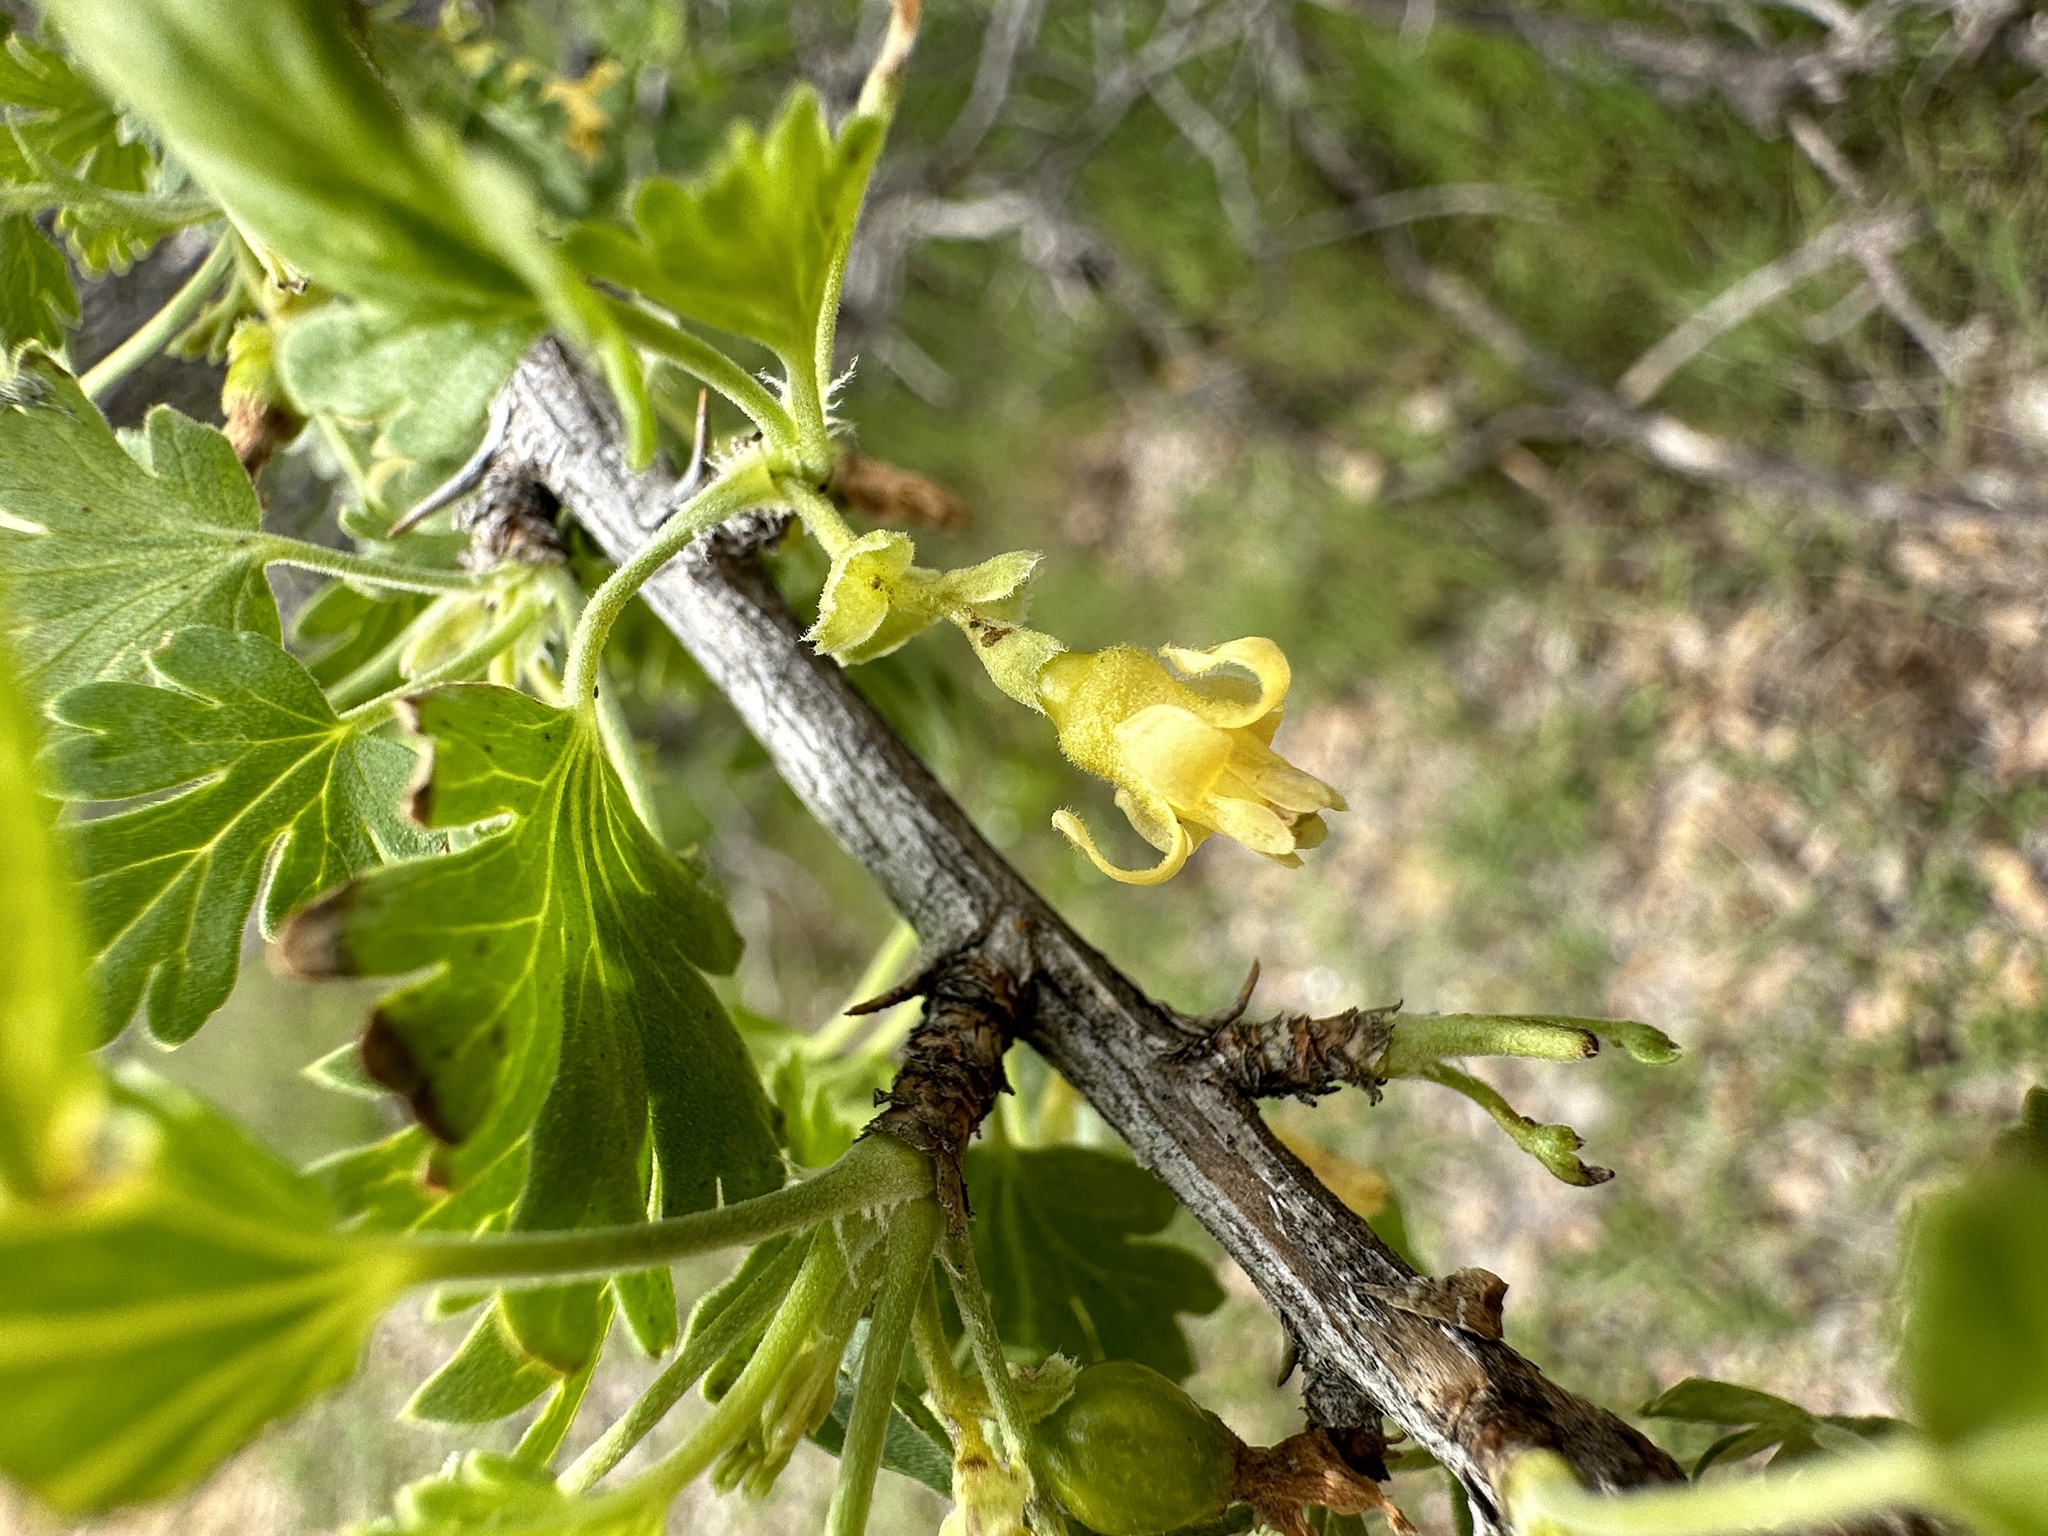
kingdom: Plantae
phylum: Tracheophyta
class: Magnoliopsida
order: Saxifragales
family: Grossulariaceae
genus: Ribes
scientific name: Ribes quercetorum
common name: Oak gooseberry
